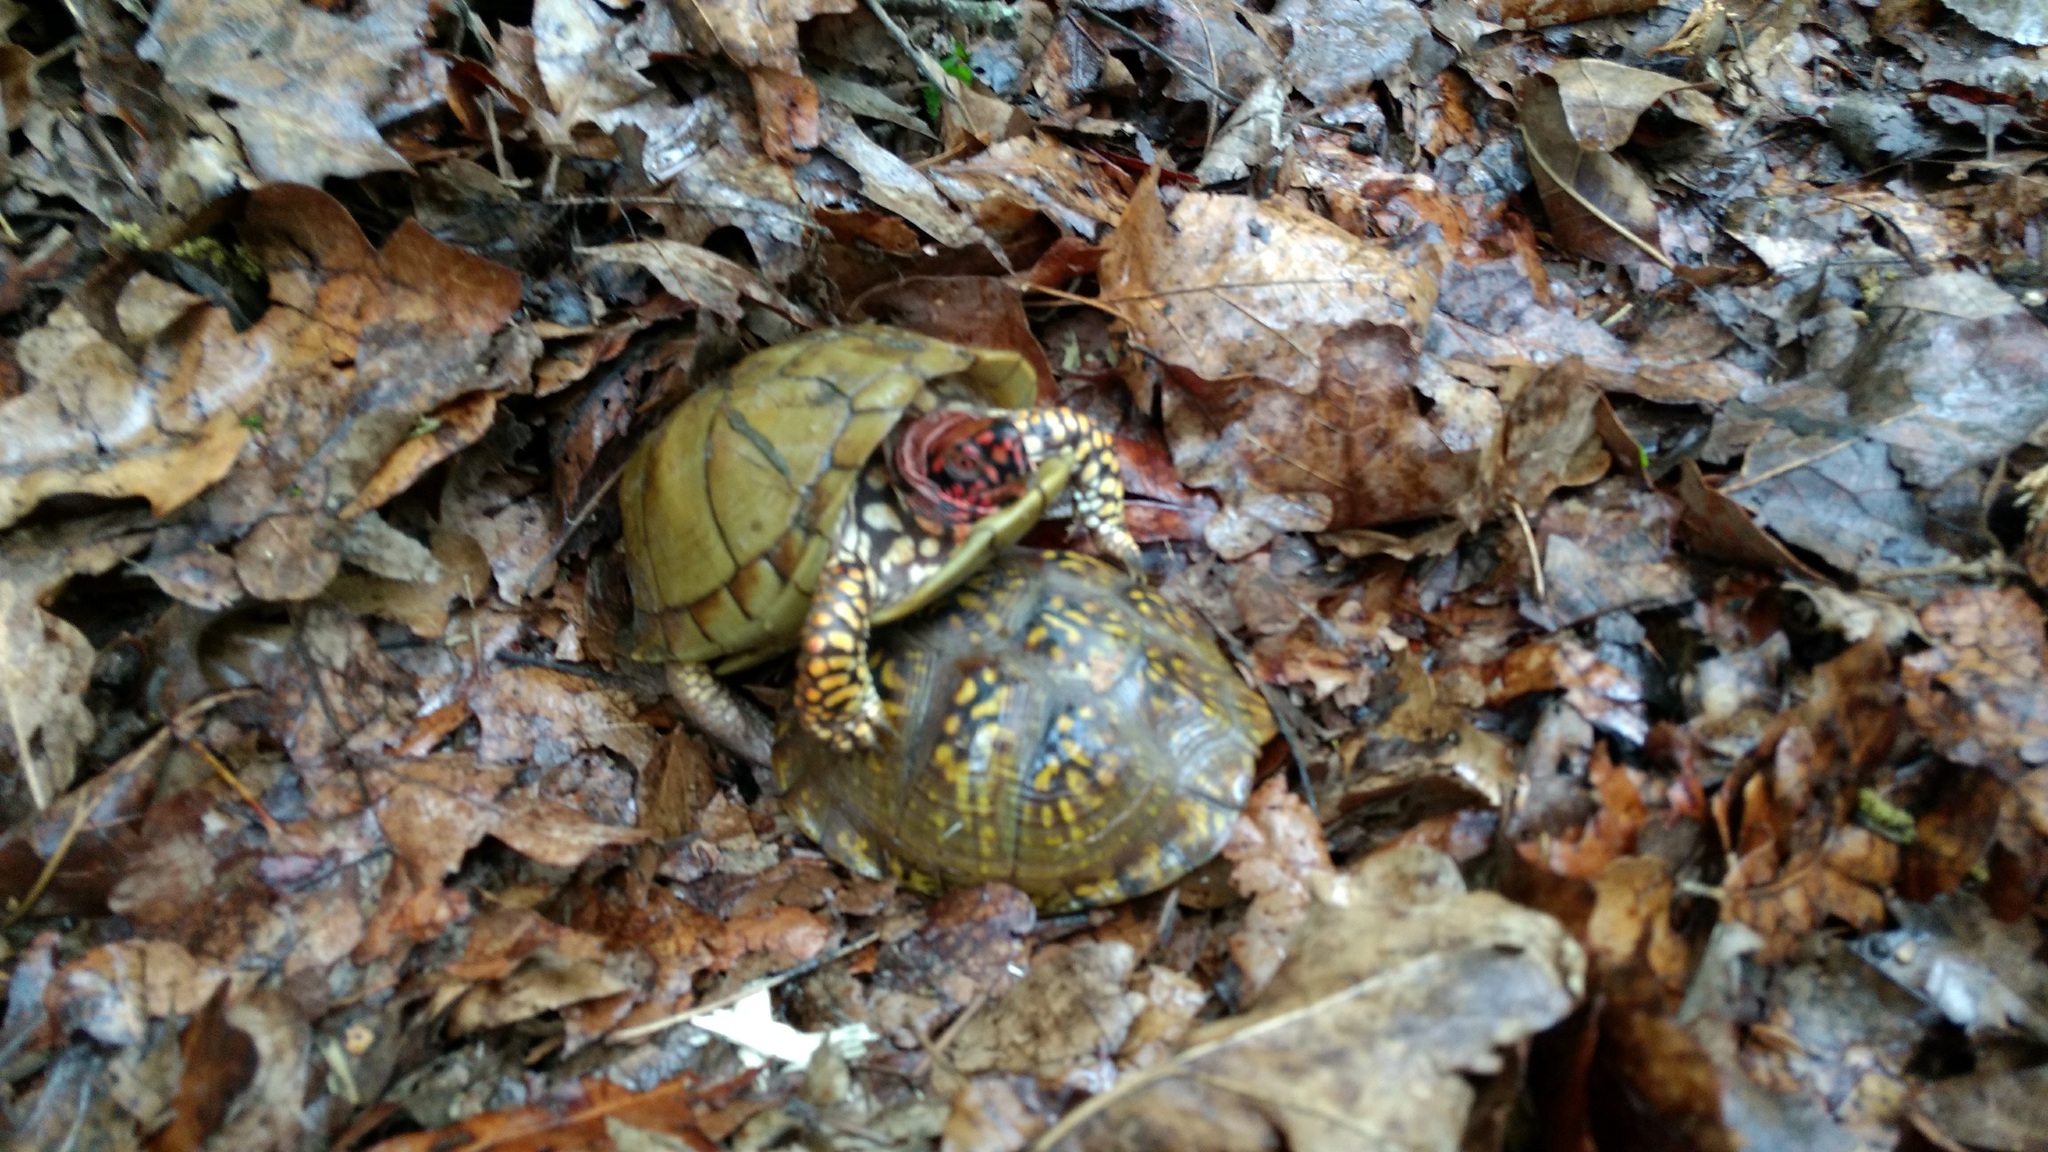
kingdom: Animalia
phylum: Chordata
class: Testudines
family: Emydidae
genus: Terrapene
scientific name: Terrapene carolina
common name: Common box turtle
